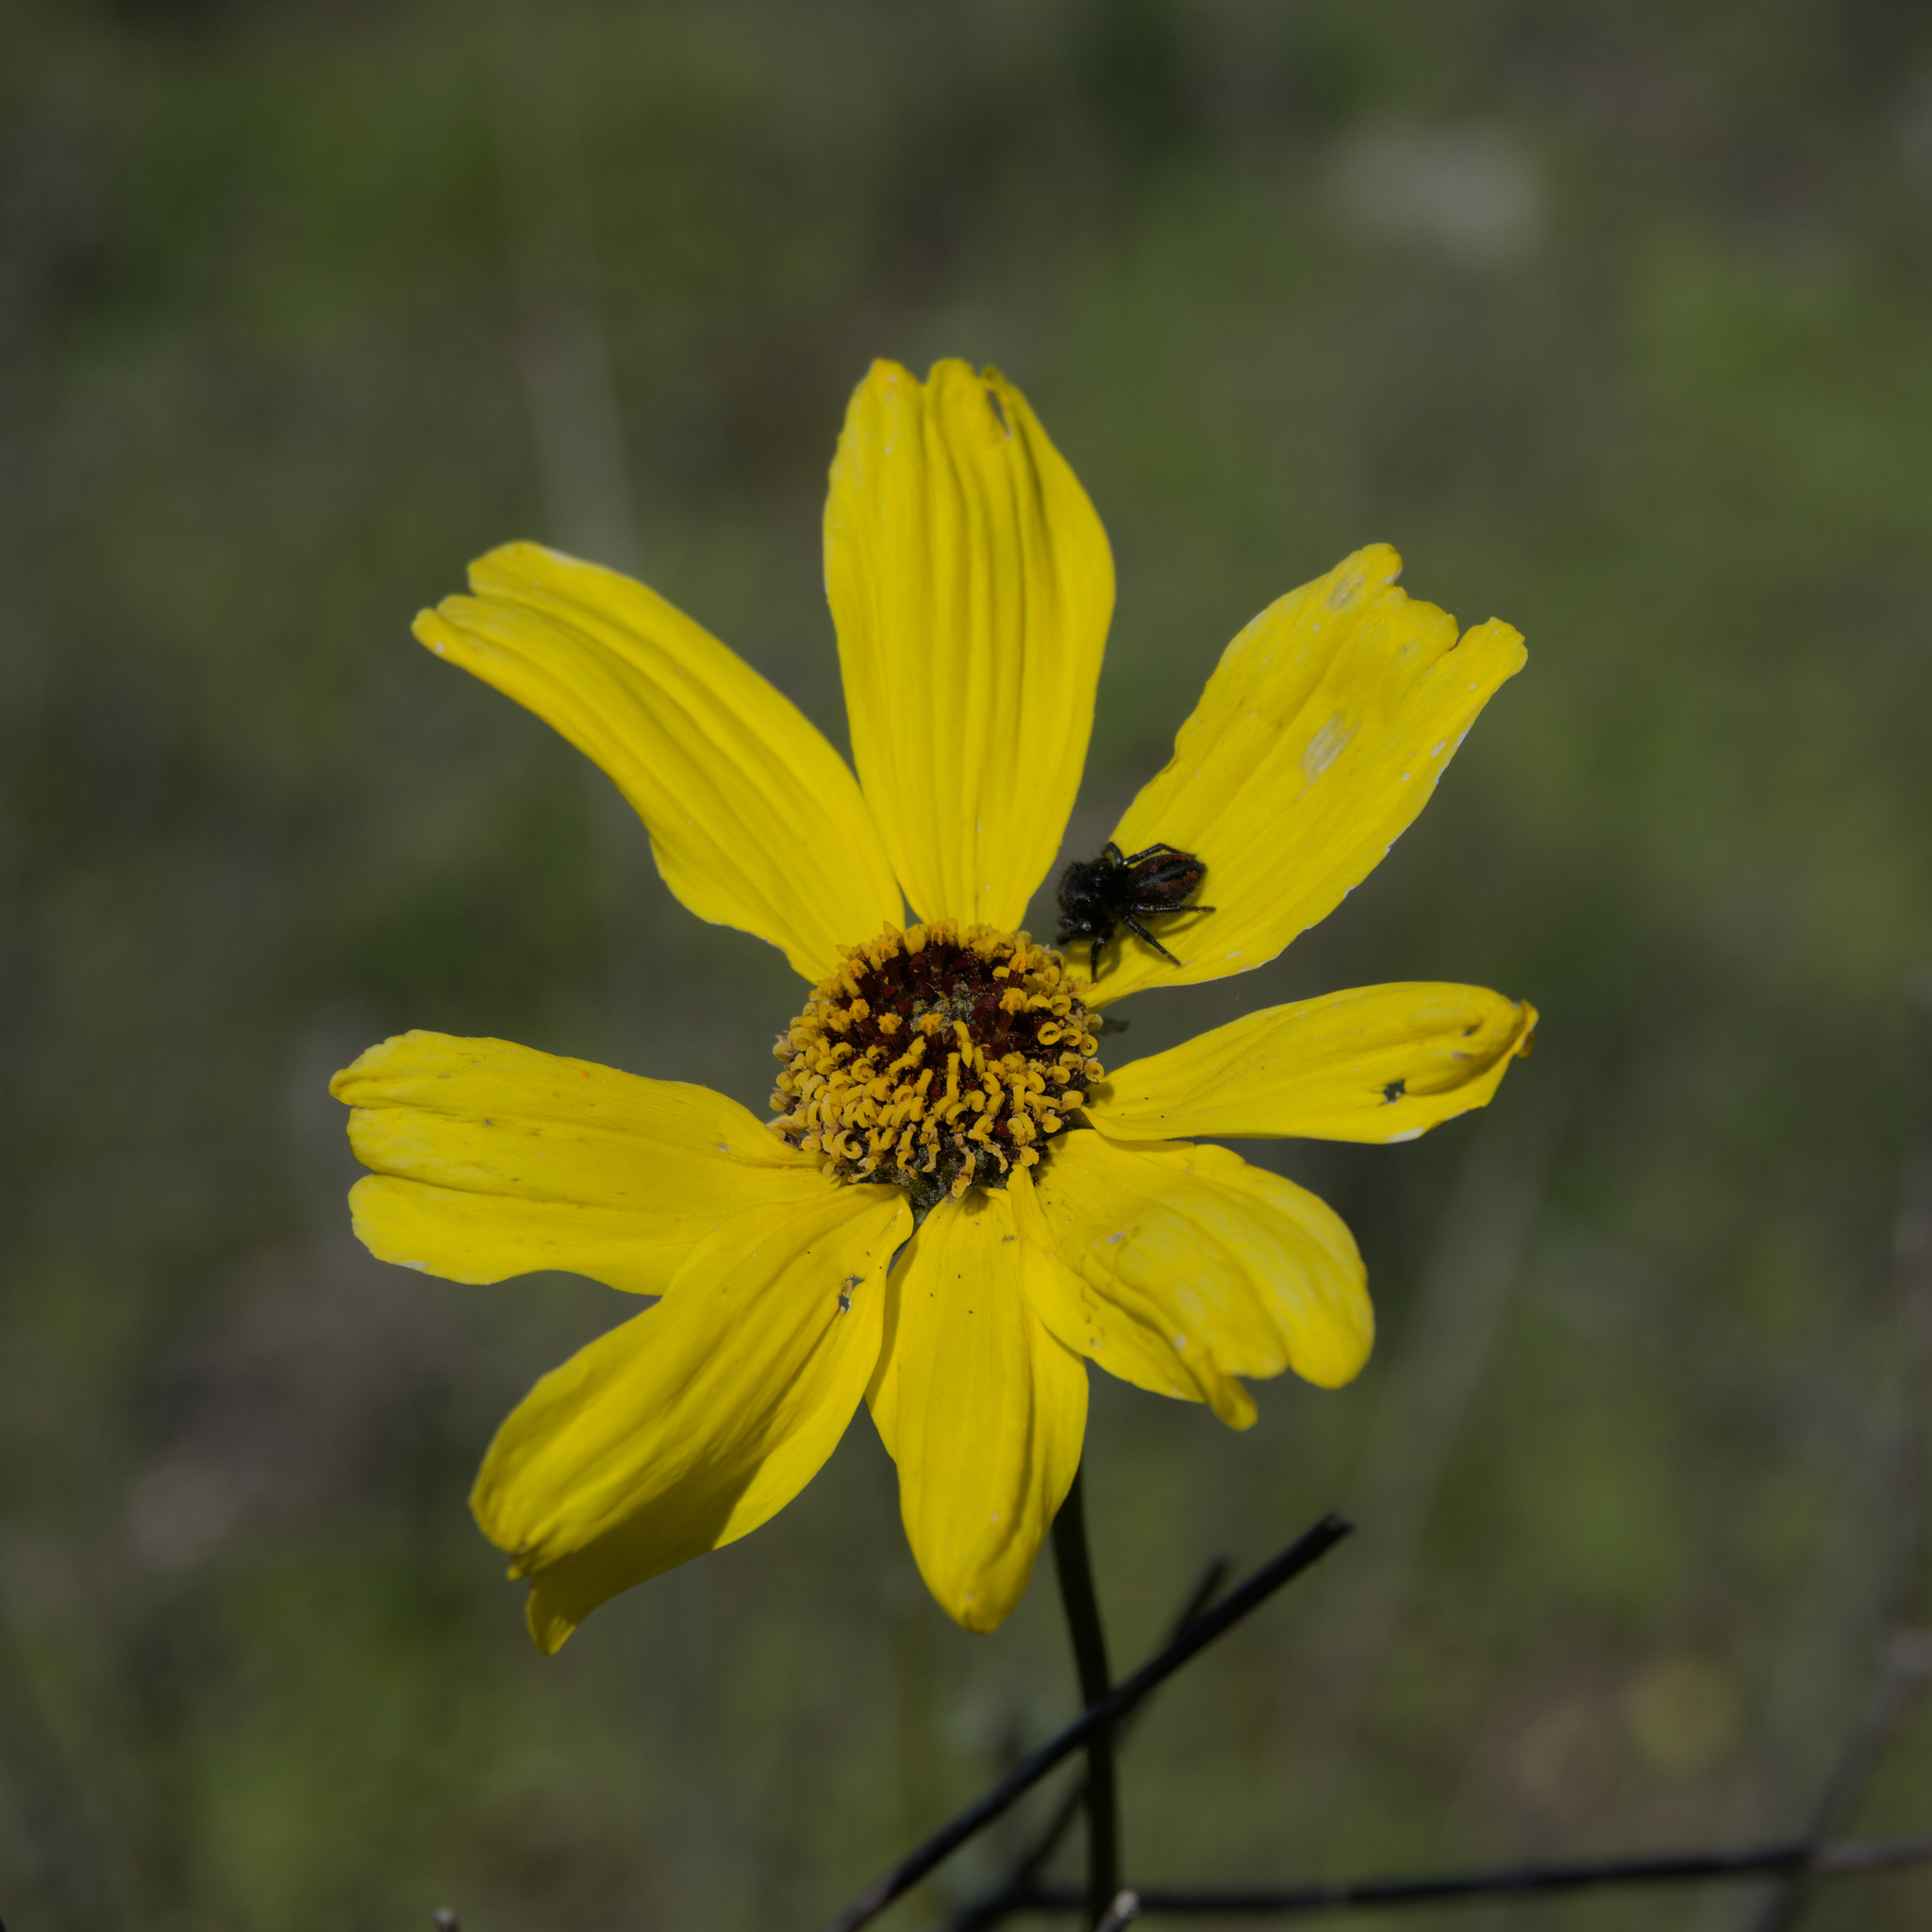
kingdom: Animalia
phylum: Arthropoda
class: Arachnida
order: Araneae
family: Salticidae
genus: Phidippus
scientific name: Phidippus johnsoni
